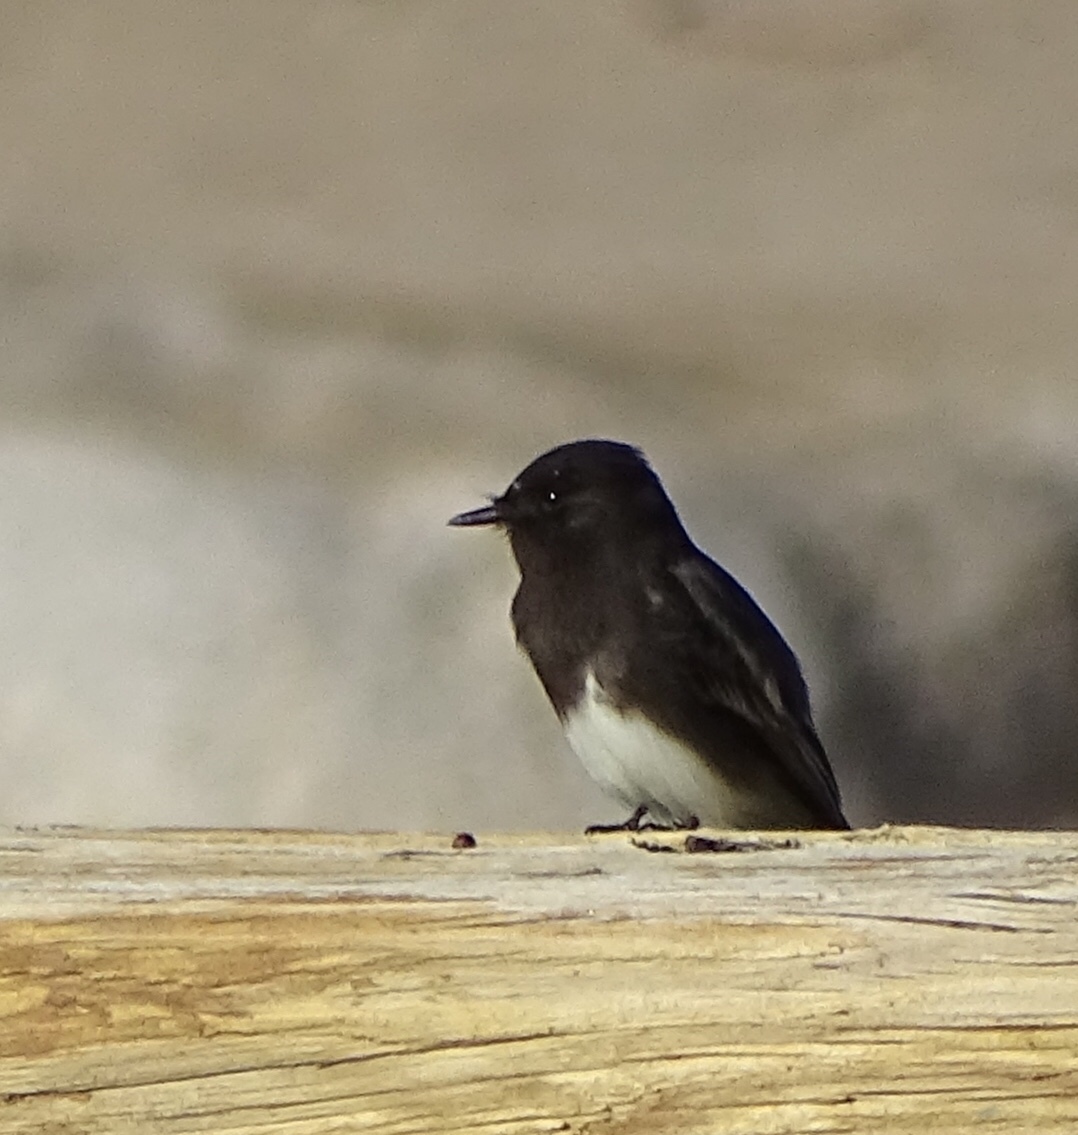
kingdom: Animalia
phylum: Chordata
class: Aves
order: Passeriformes
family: Tyrannidae
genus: Sayornis
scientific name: Sayornis nigricans
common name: Black phoebe
